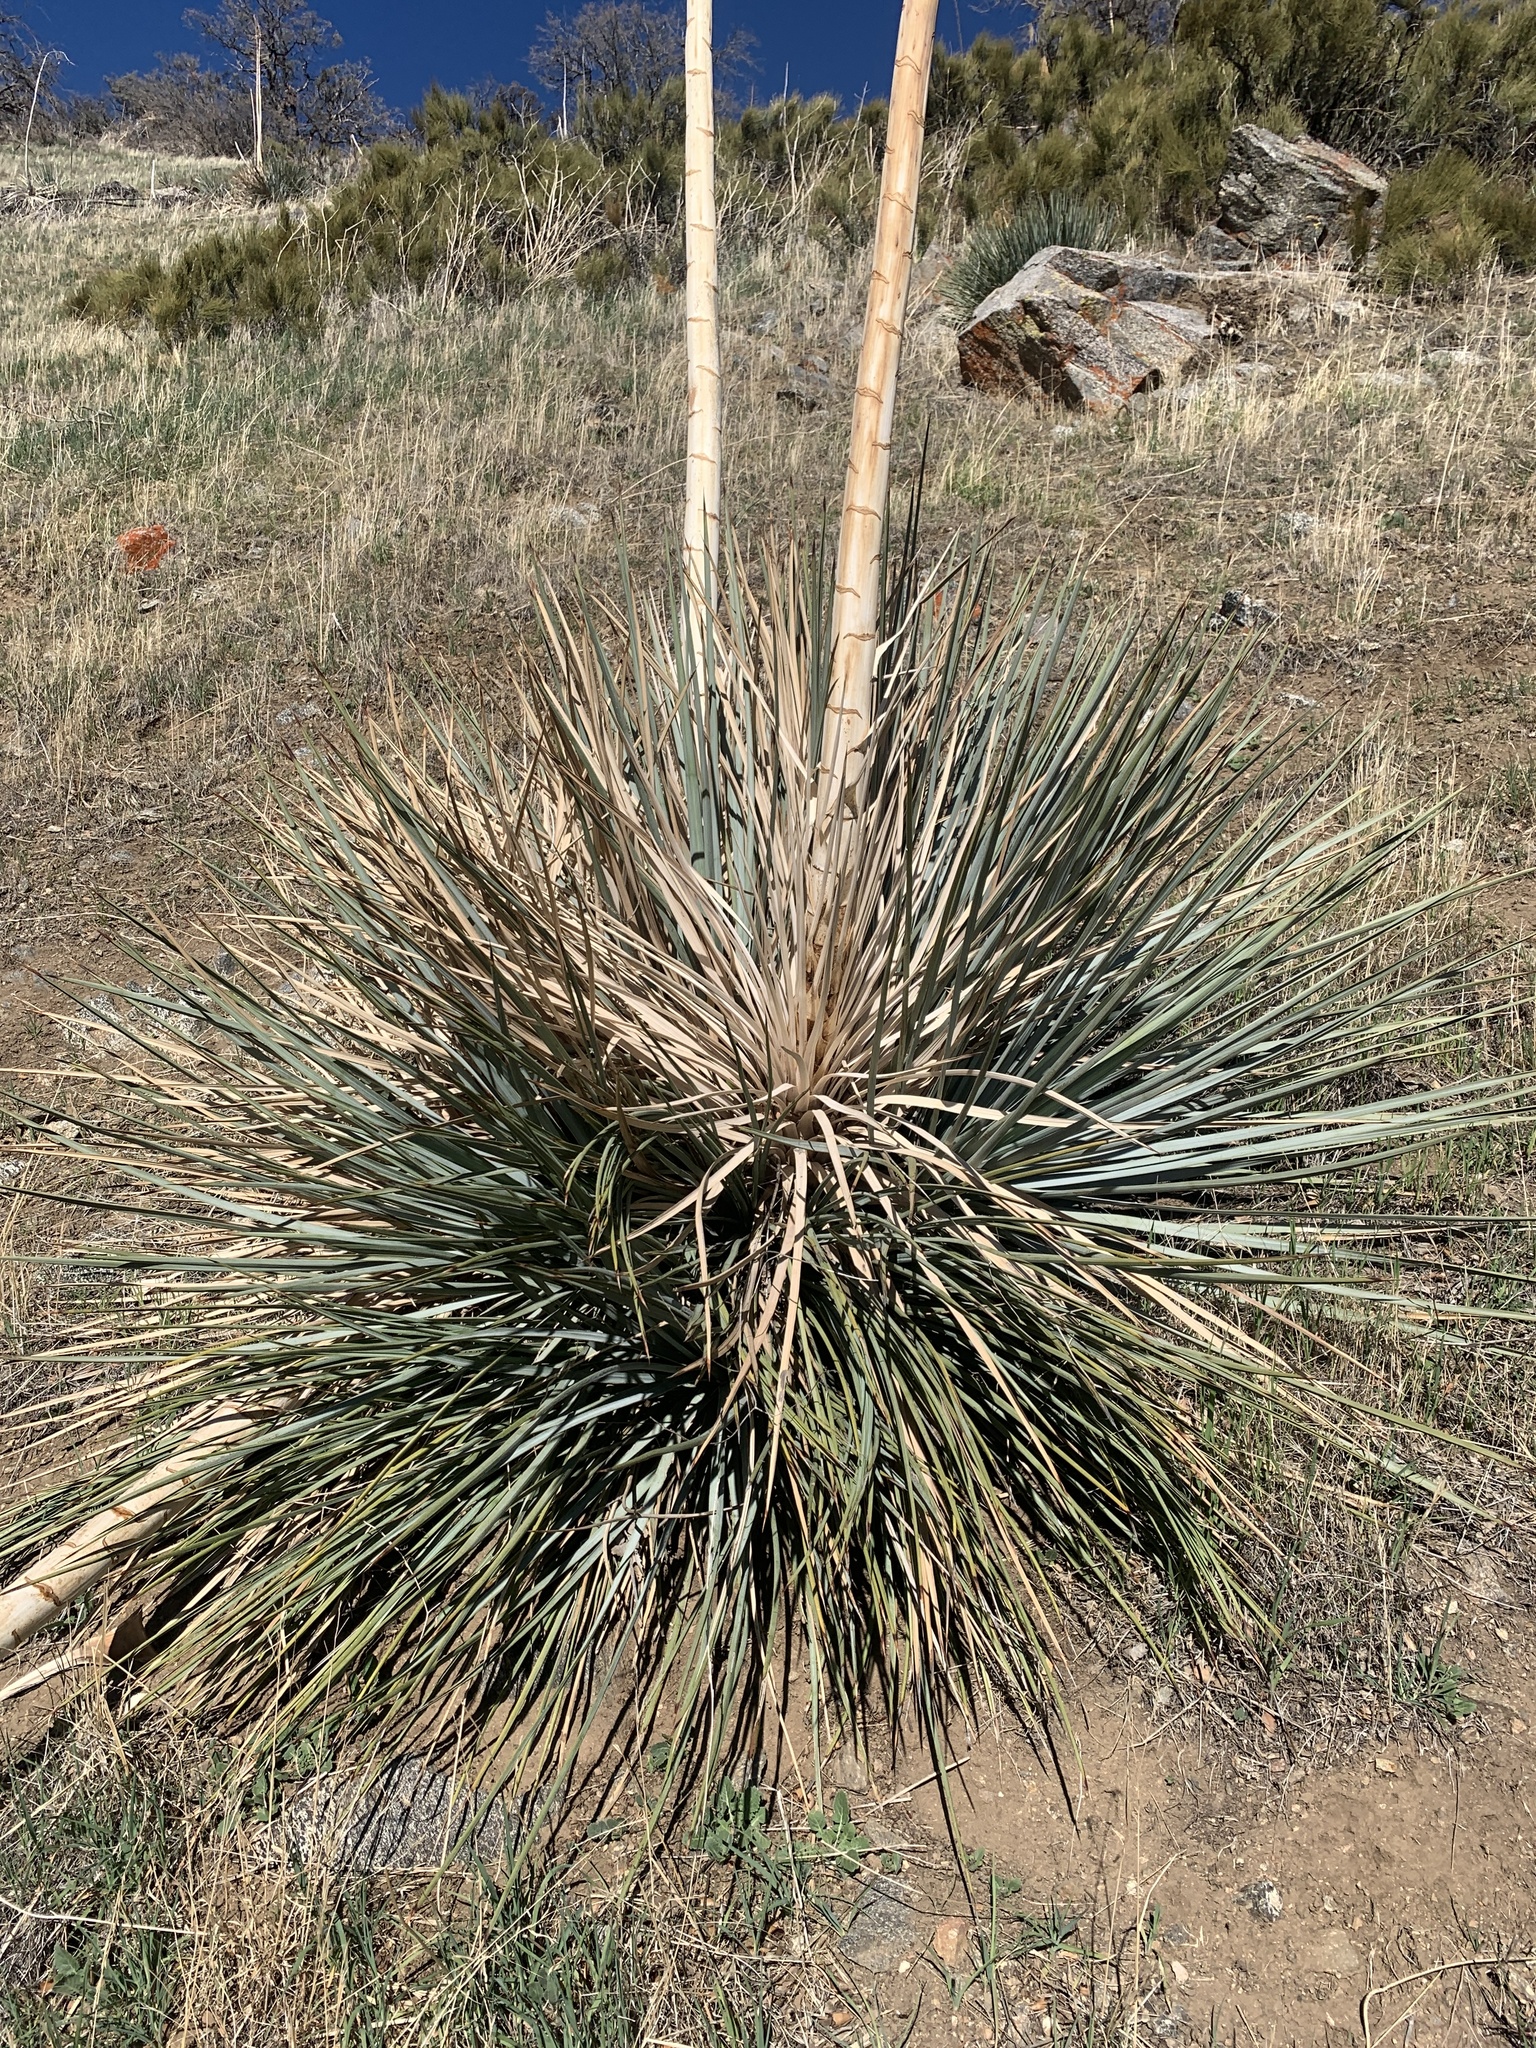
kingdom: Plantae
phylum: Tracheophyta
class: Liliopsida
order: Asparagales
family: Asparagaceae
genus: Hesperoyucca
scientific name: Hesperoyucca whipplei
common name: Our lord's-candle
